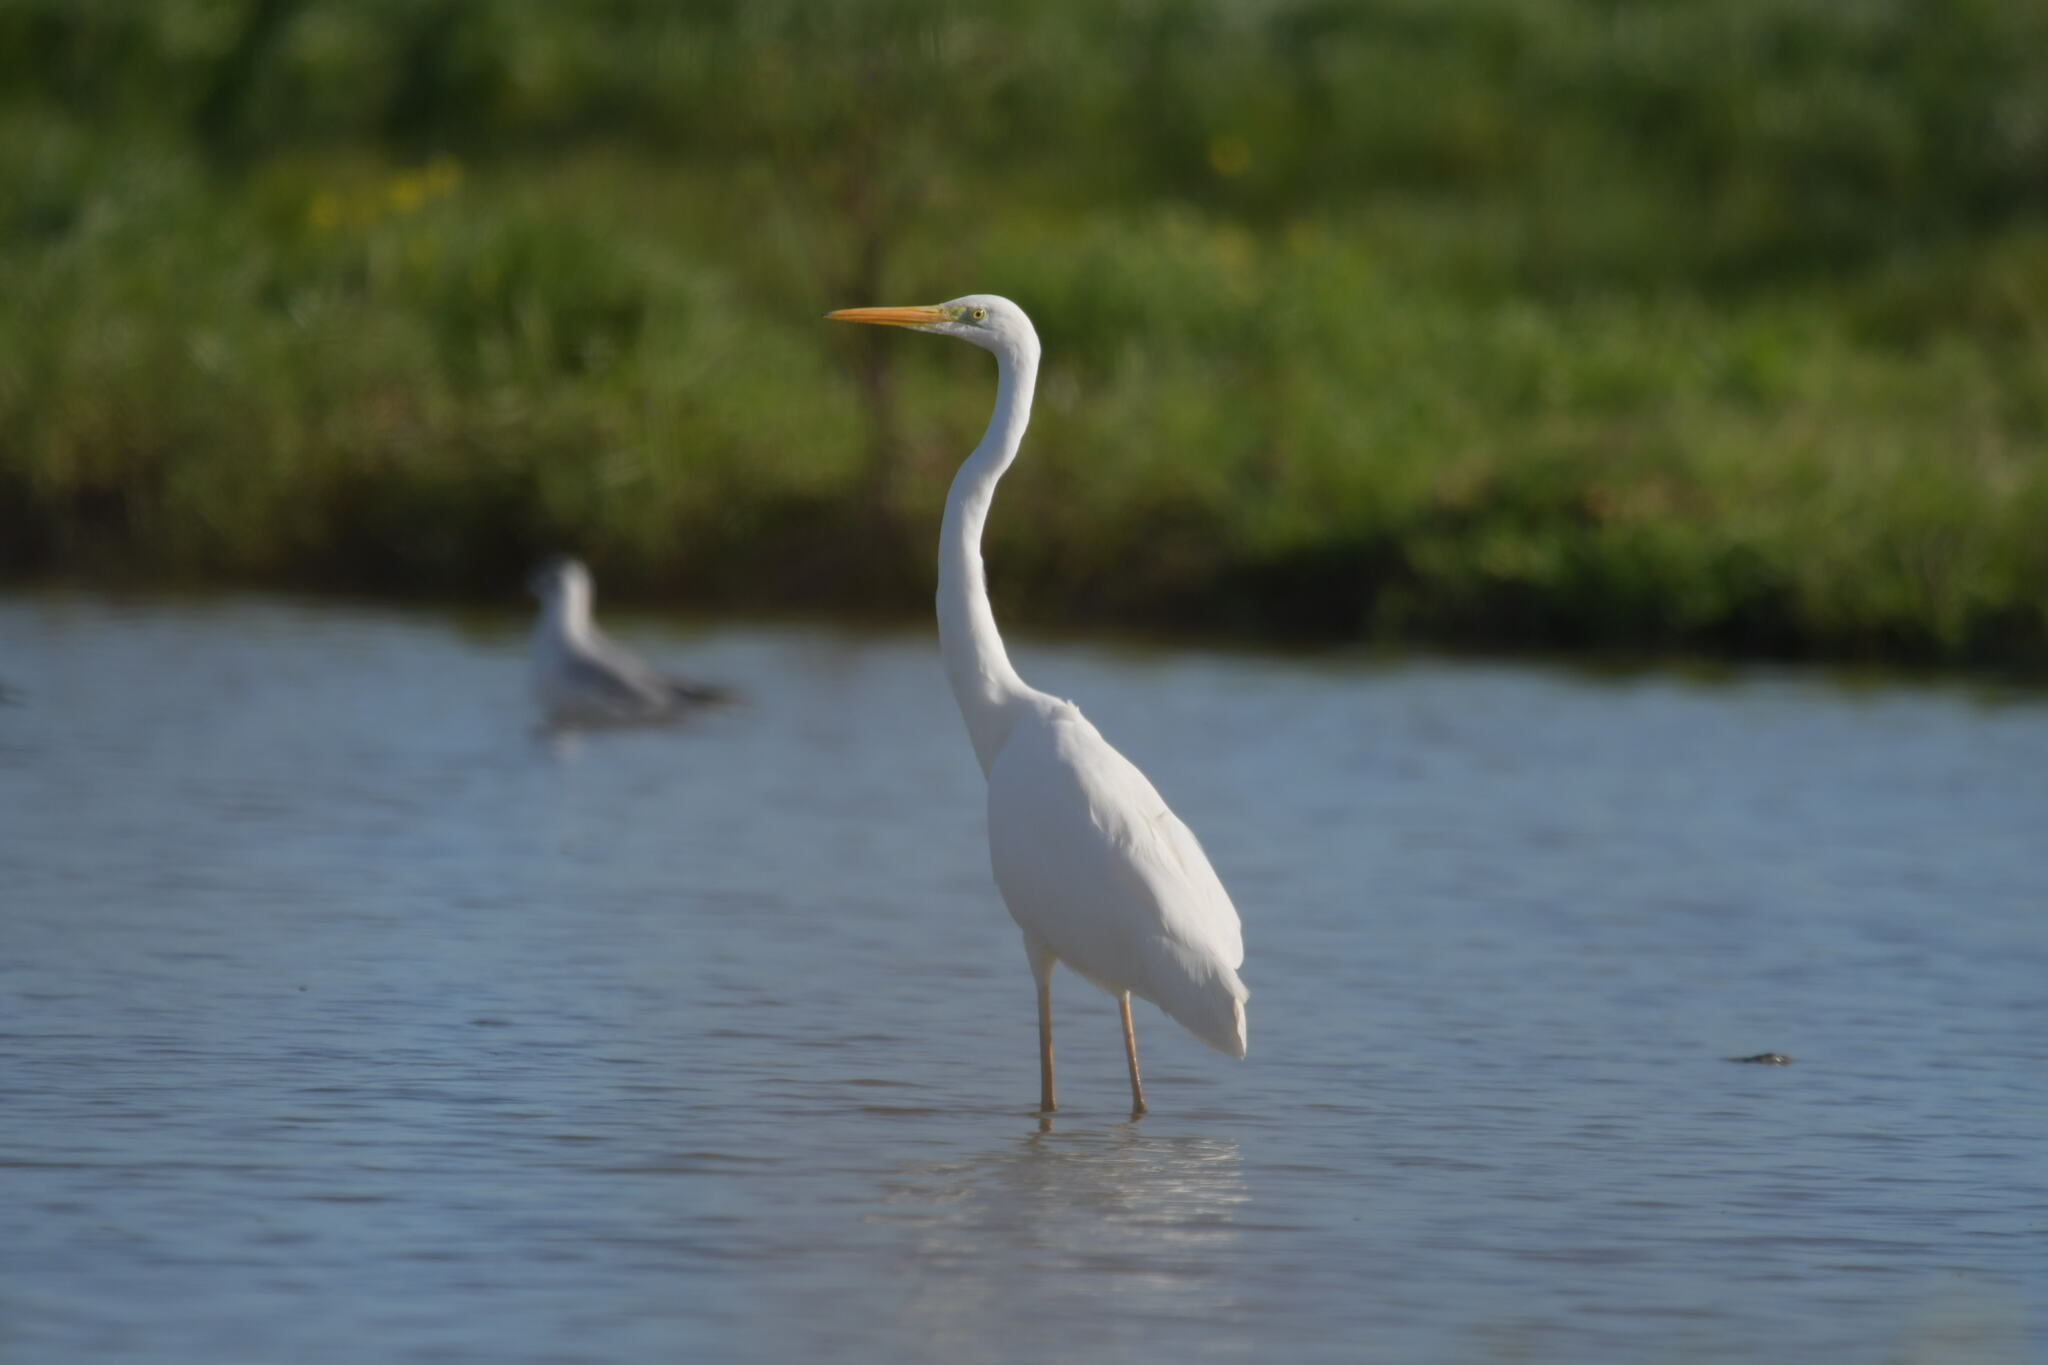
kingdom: Animalia
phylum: Chordata
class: Aves
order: Pelecaniformes
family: Ardeidae
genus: Ardea
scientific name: Ardea alba
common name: Great egret
